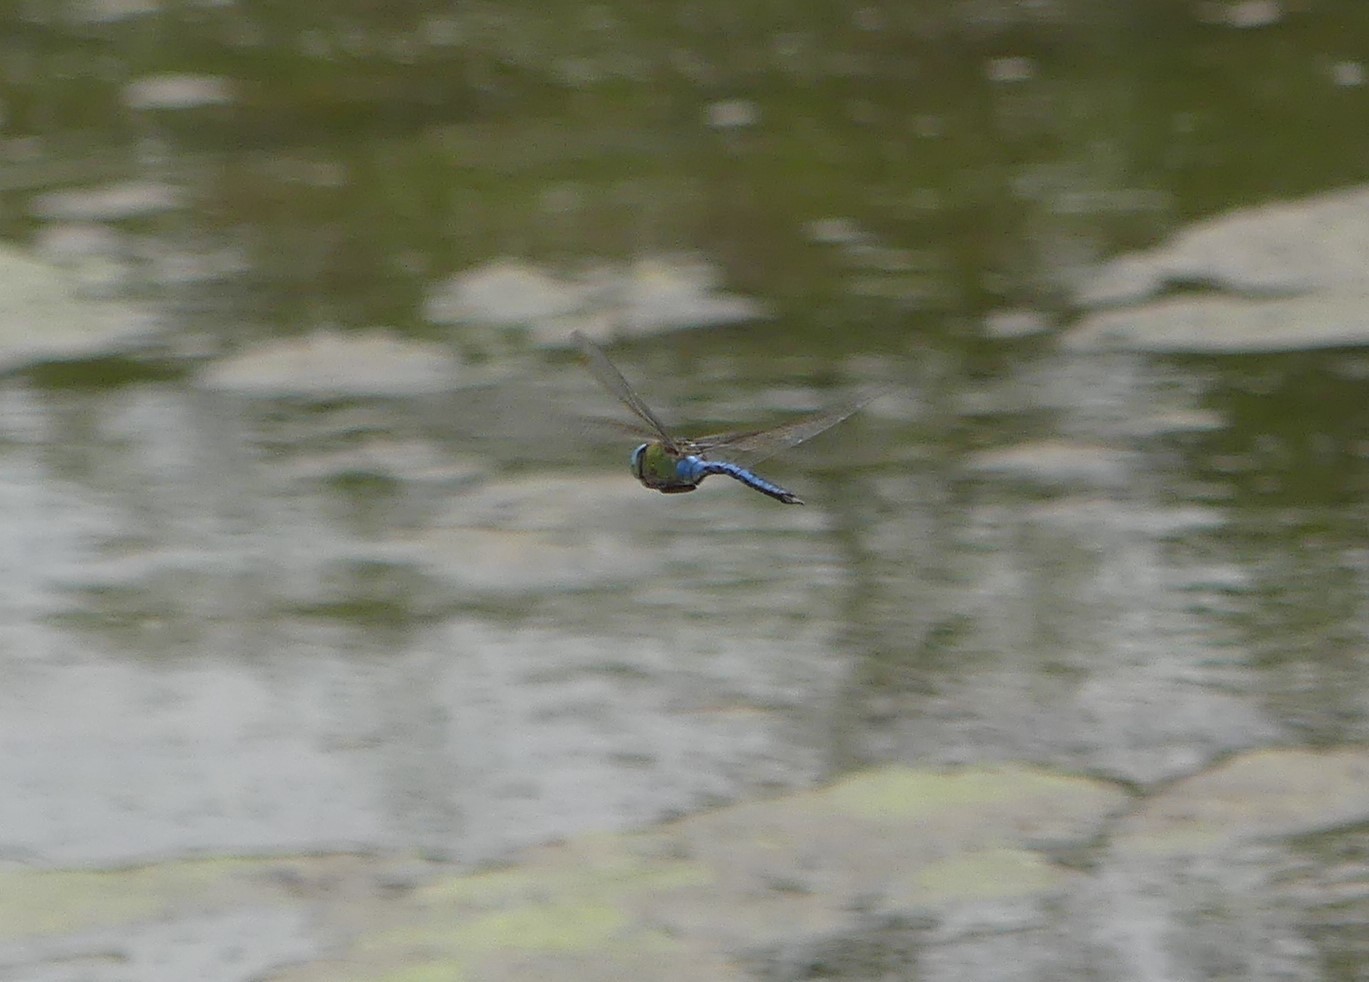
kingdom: Animalia
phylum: Arthropoda
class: Insecta
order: Odonata
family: Aeshnidae
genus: Anax
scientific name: Anax imperator
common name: Emperor dragonfly
